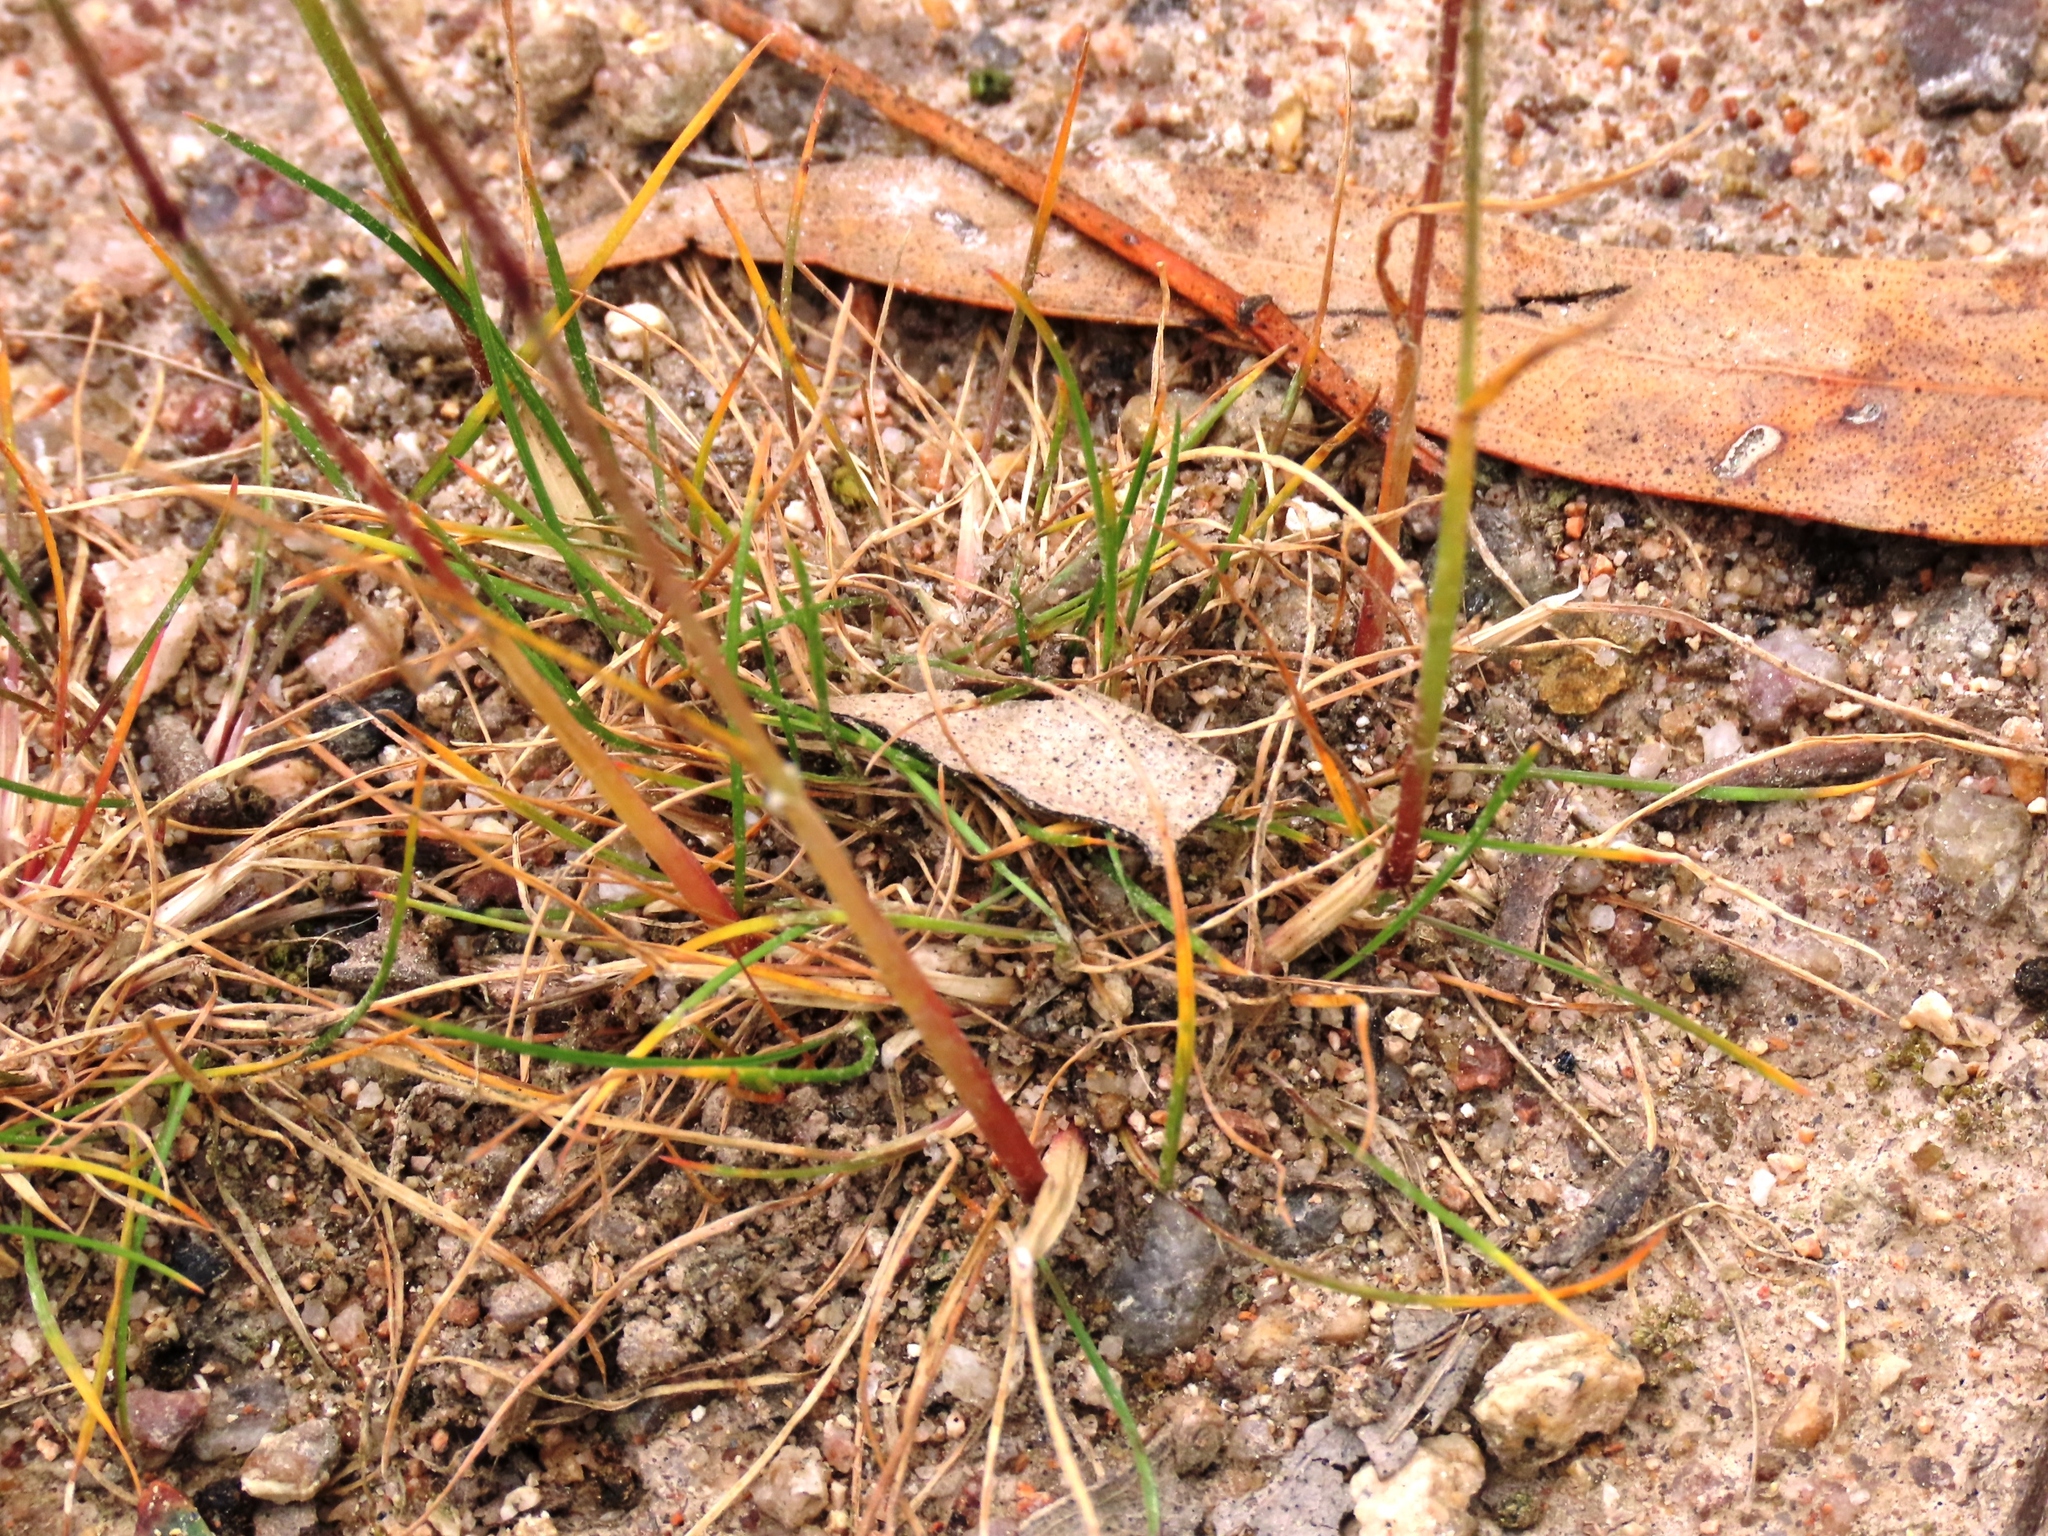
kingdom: Plantae
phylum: Tracheophyta
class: Liliopsida
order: Poales
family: Poaceae
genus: Poa
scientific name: Poa bulbosa
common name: Bulbous bluegrass
